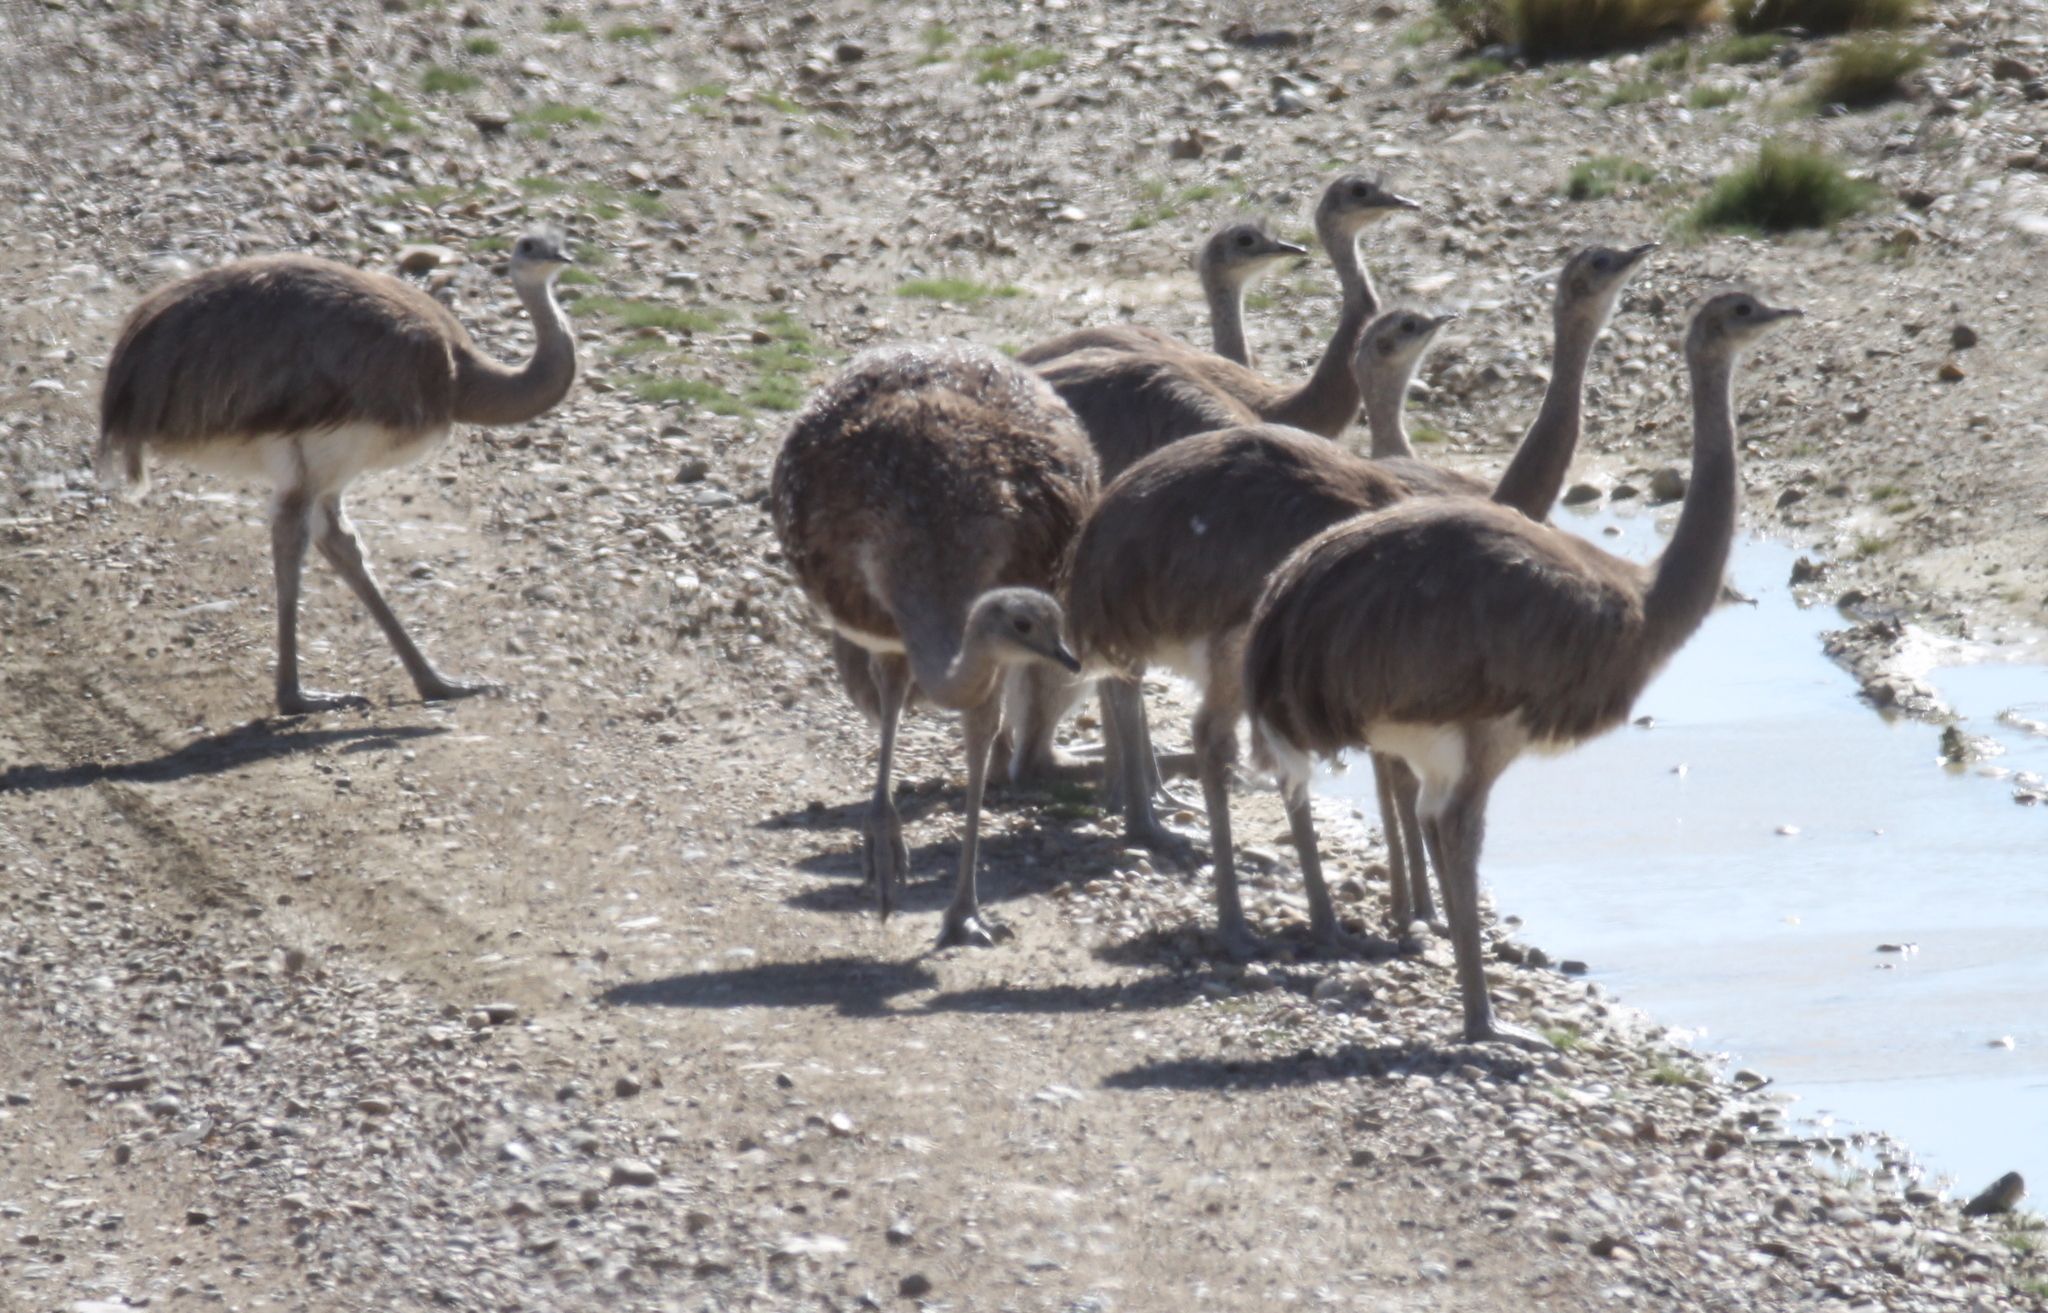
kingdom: Animalia
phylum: Chordata
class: Aves
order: Rheiformes
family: Rheidae
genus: Rhea
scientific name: Rhea pennata
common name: Lesser rhea
